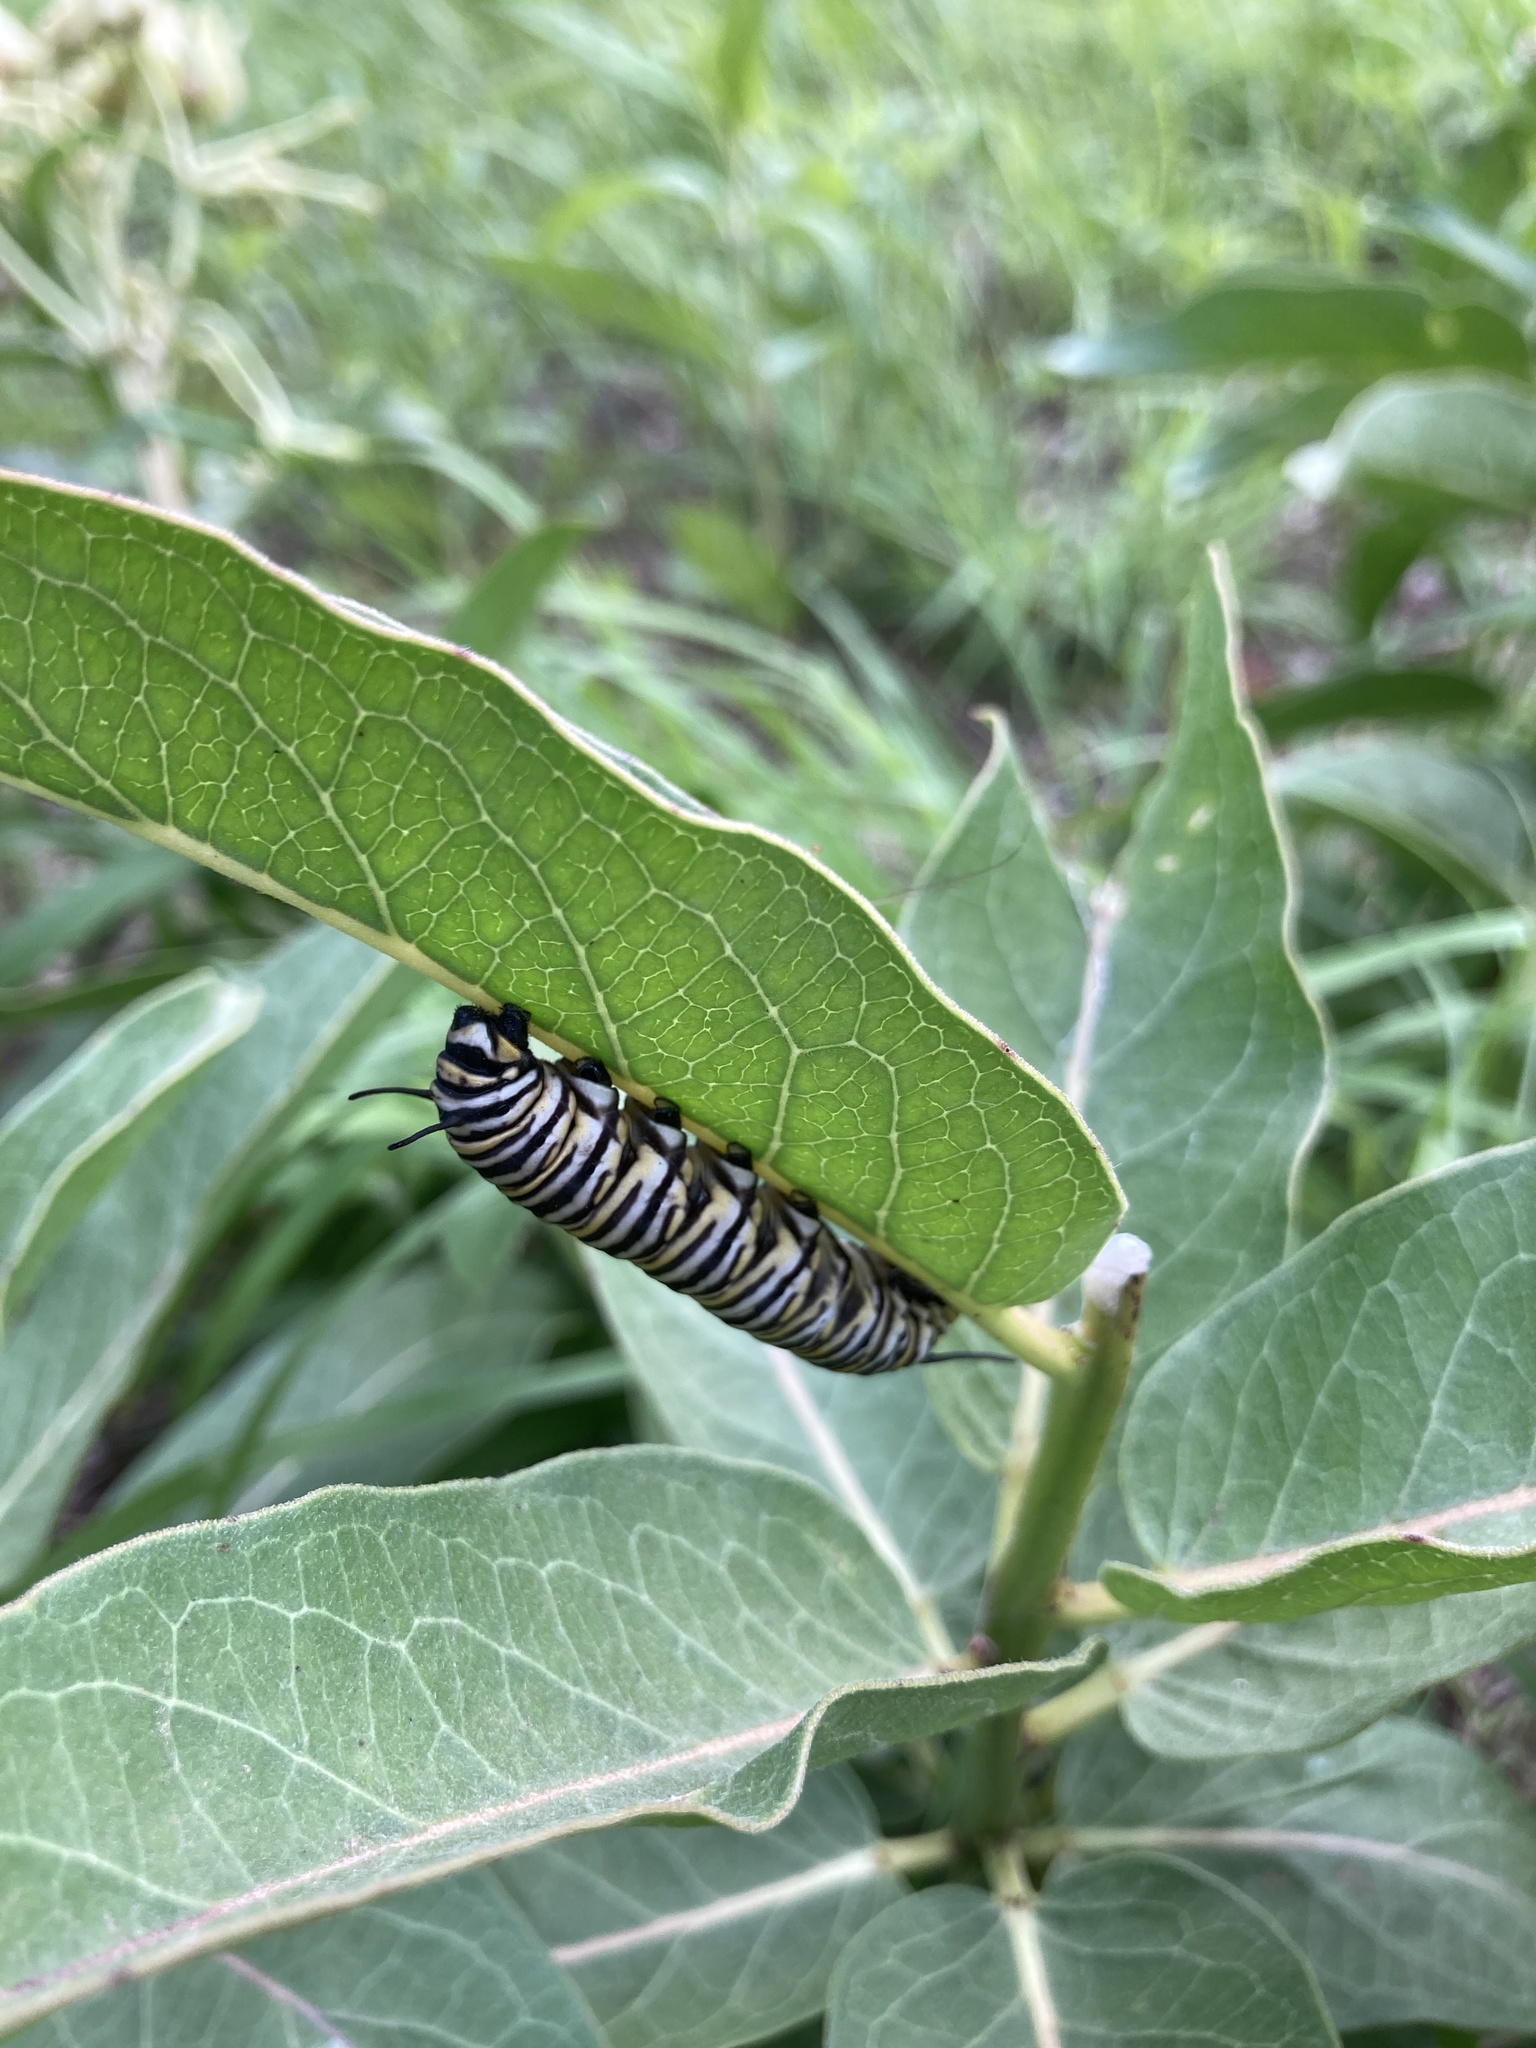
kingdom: Animalia
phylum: Arthropoda
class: Insecta
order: Lepidoptera
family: Nymphalidae
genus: Danaus
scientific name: Danaus plexippus
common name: Monarch
